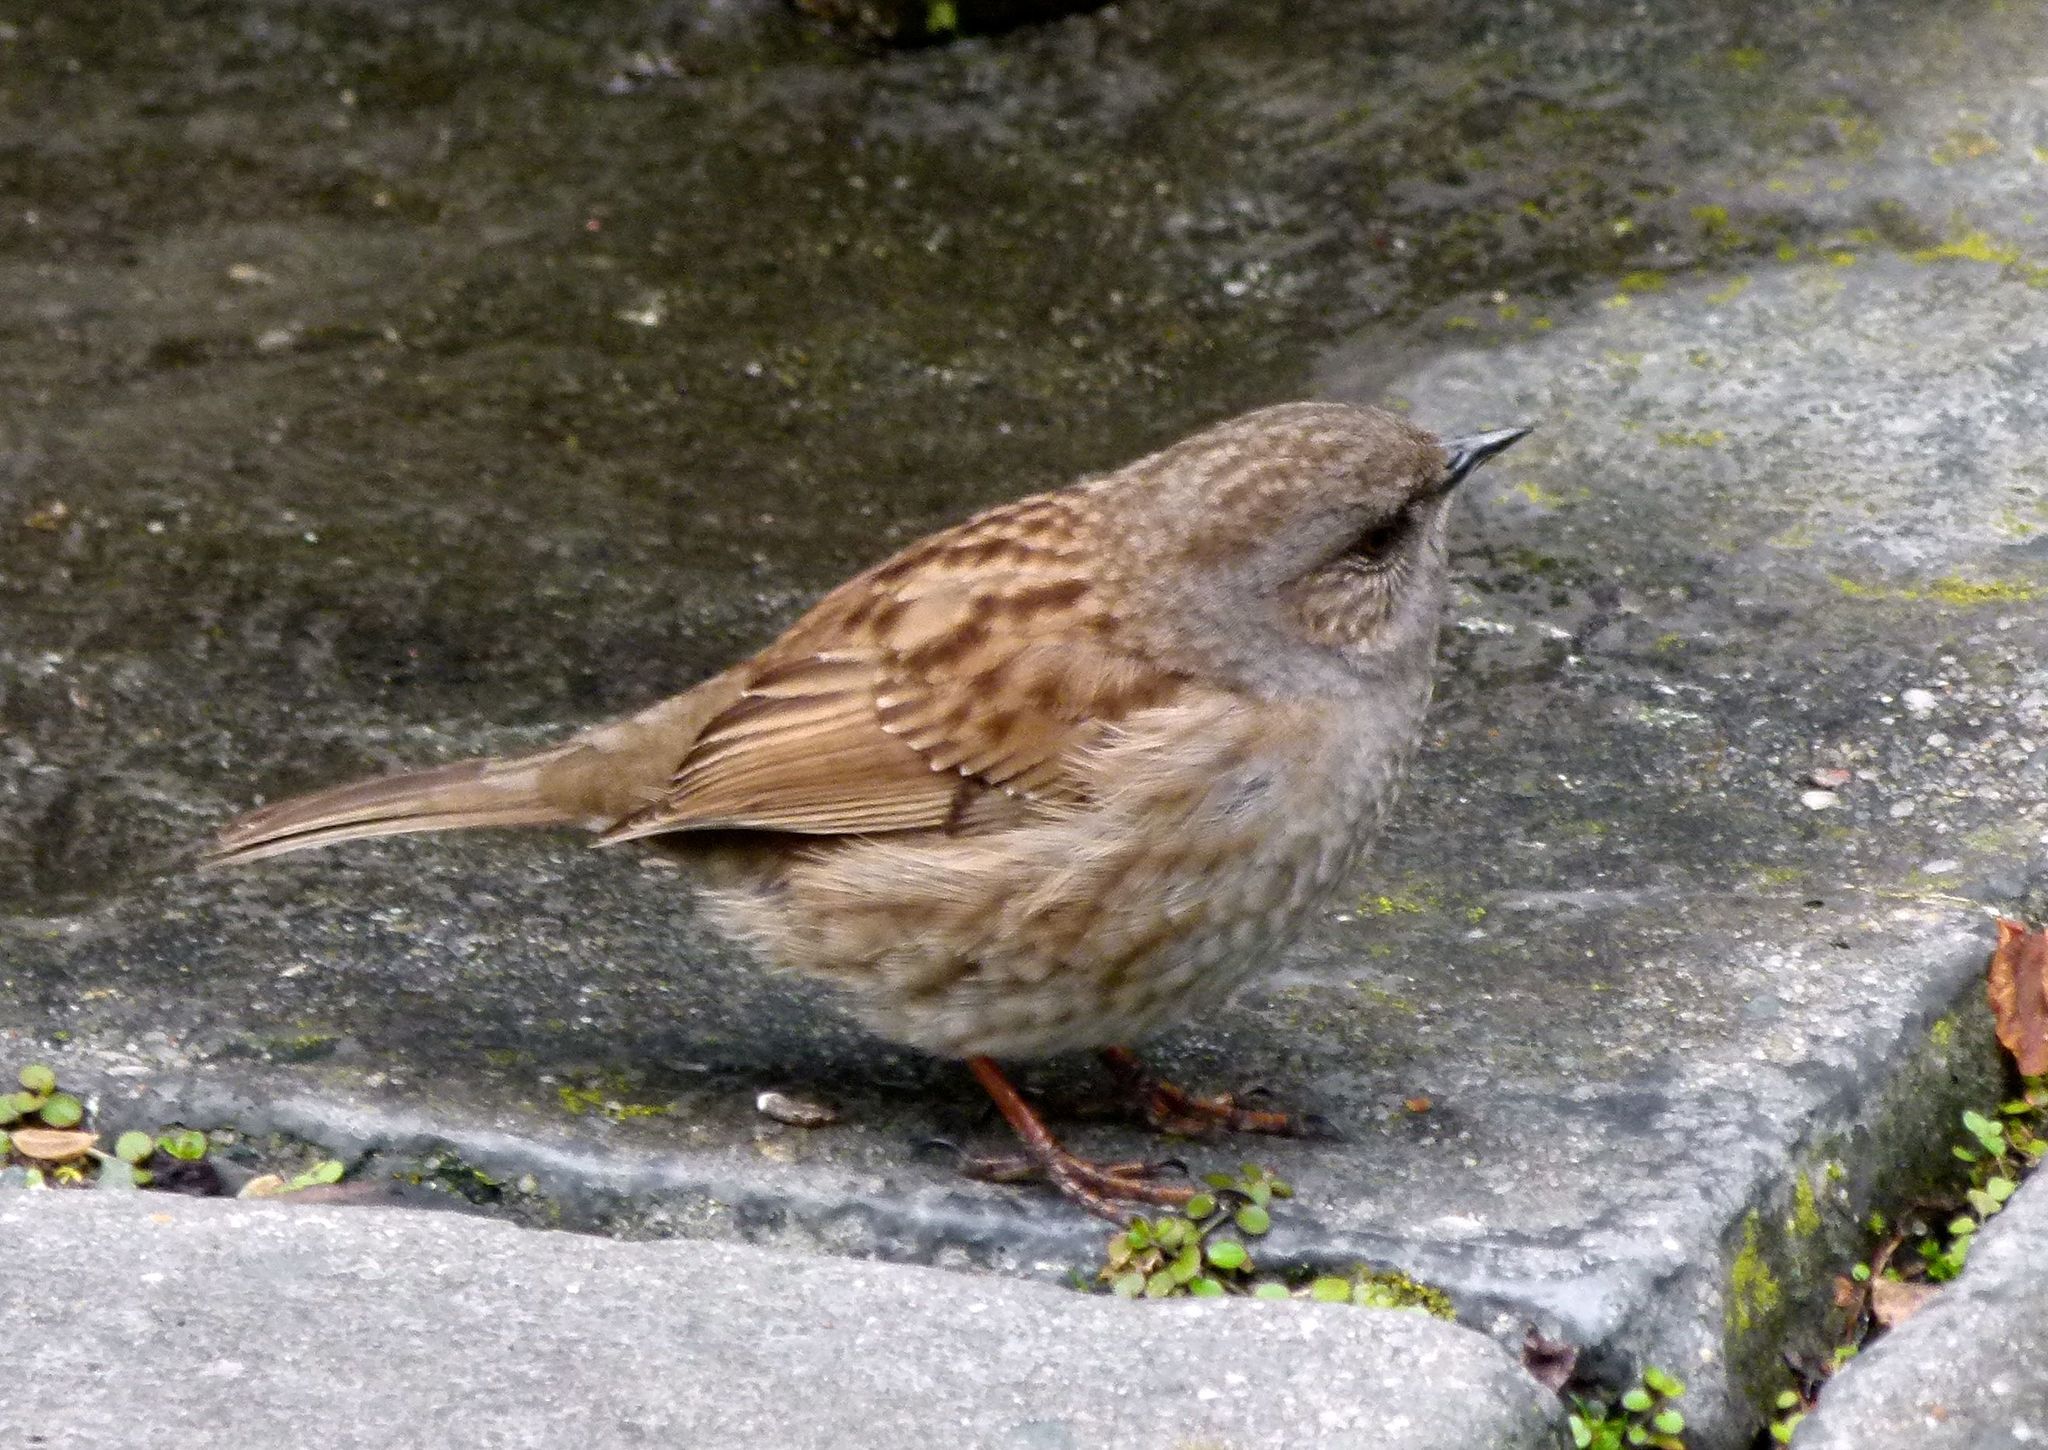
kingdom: Animalia
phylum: Chordata
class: Aves
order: Passeriformes
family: Prunellidae
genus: Prunella
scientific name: Prunella modularis
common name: Dunnock
